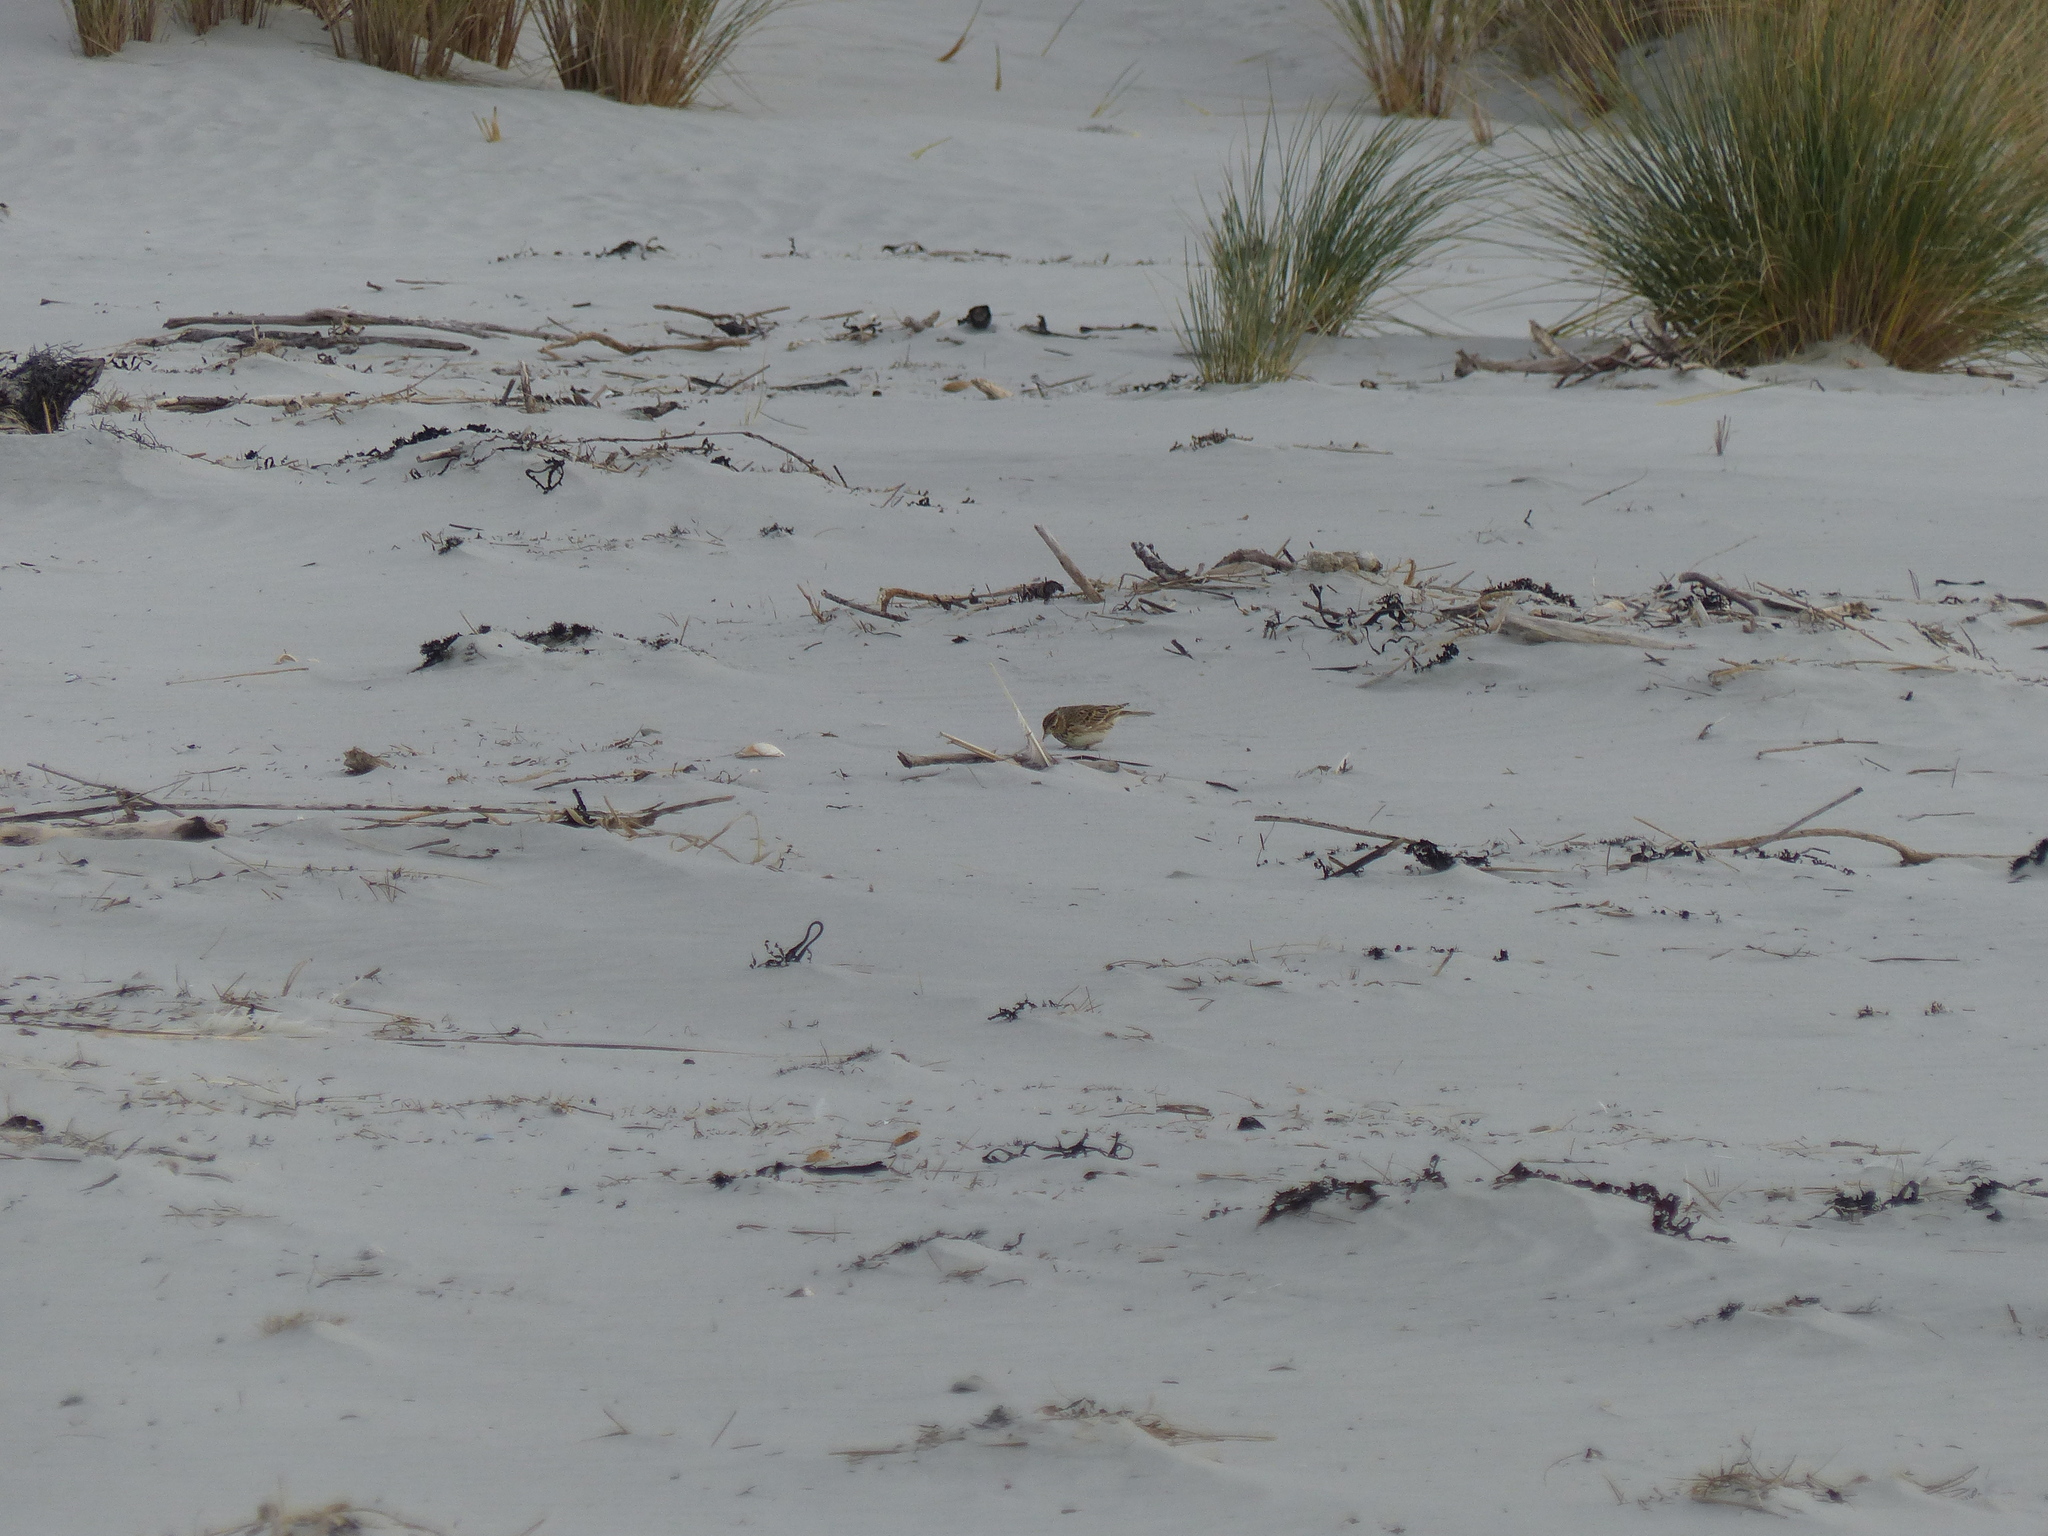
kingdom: Animalia
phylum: Chordata
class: Aves
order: Passeriformes
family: Alaudidae
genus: Alauda
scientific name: Alauda arvensis
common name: Eurasian skylark
